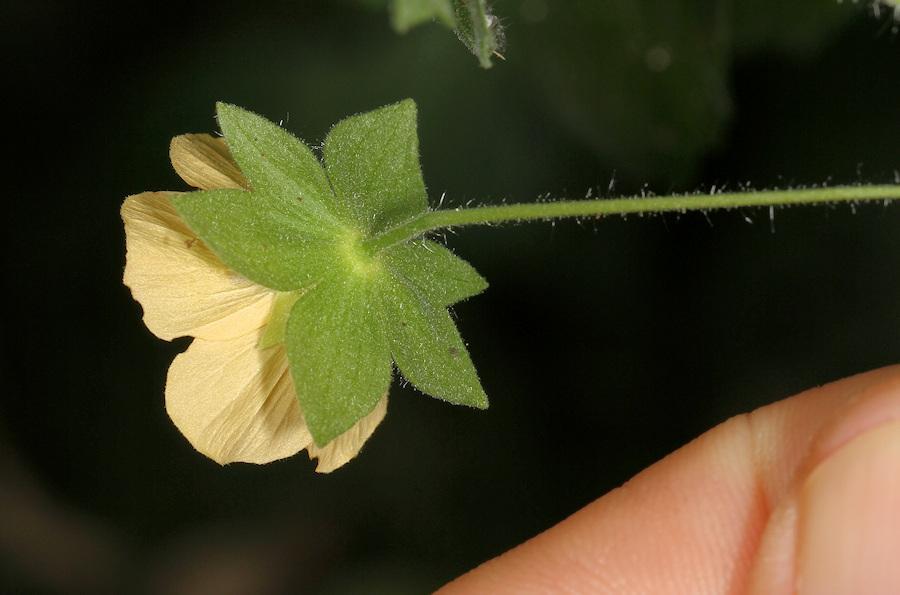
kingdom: Plantae
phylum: Tracheophyta
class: Magnoliopsida
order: Malvales
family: Malvaceae
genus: Pavonia
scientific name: Pavonia burchellii
